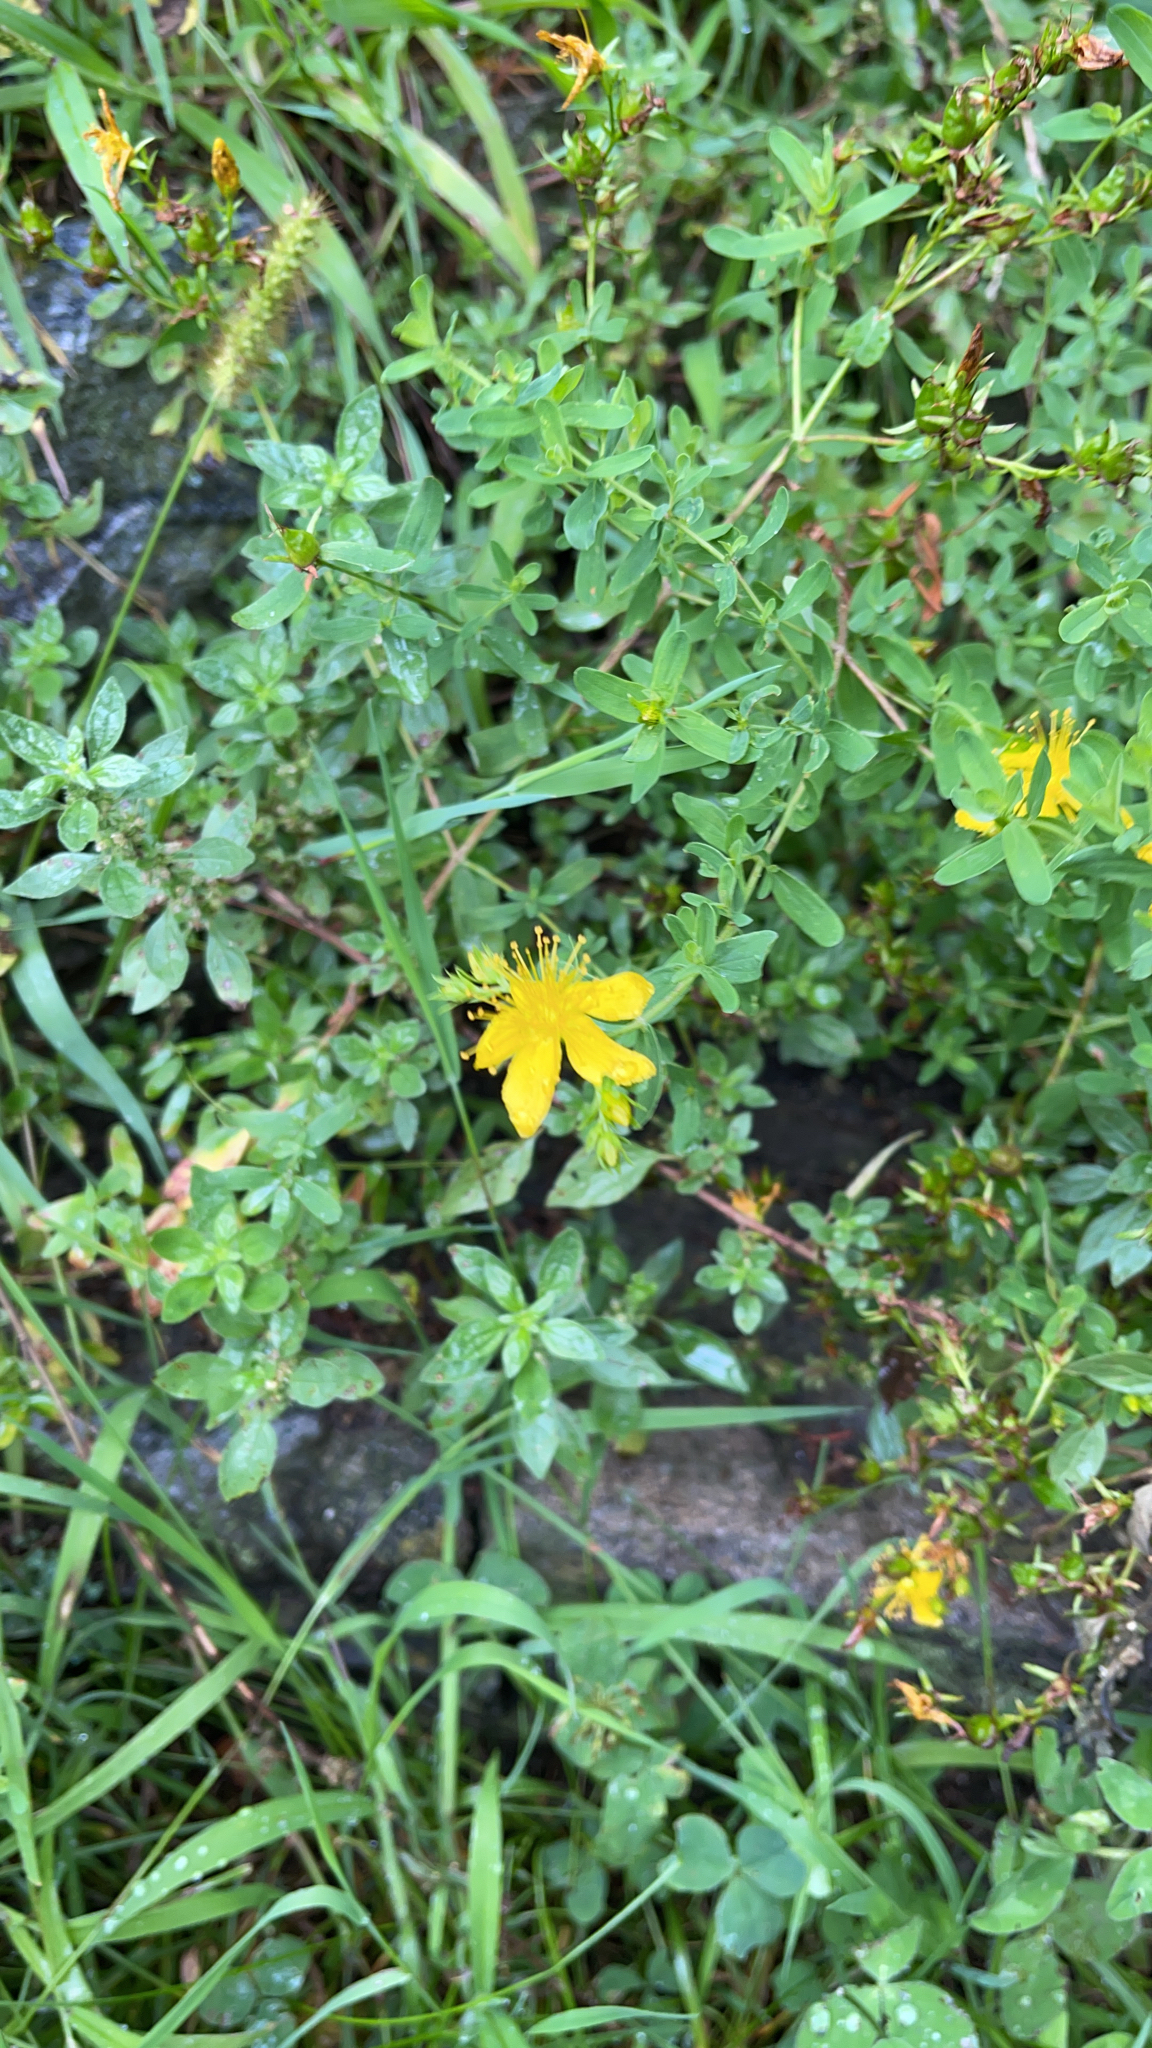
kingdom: Plantae
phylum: Tracheophyta
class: Magnoliopsida
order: Malpighiales
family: Hypericaceae
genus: Hypericum
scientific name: Hypericum perforatum
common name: Common st. johnswort
